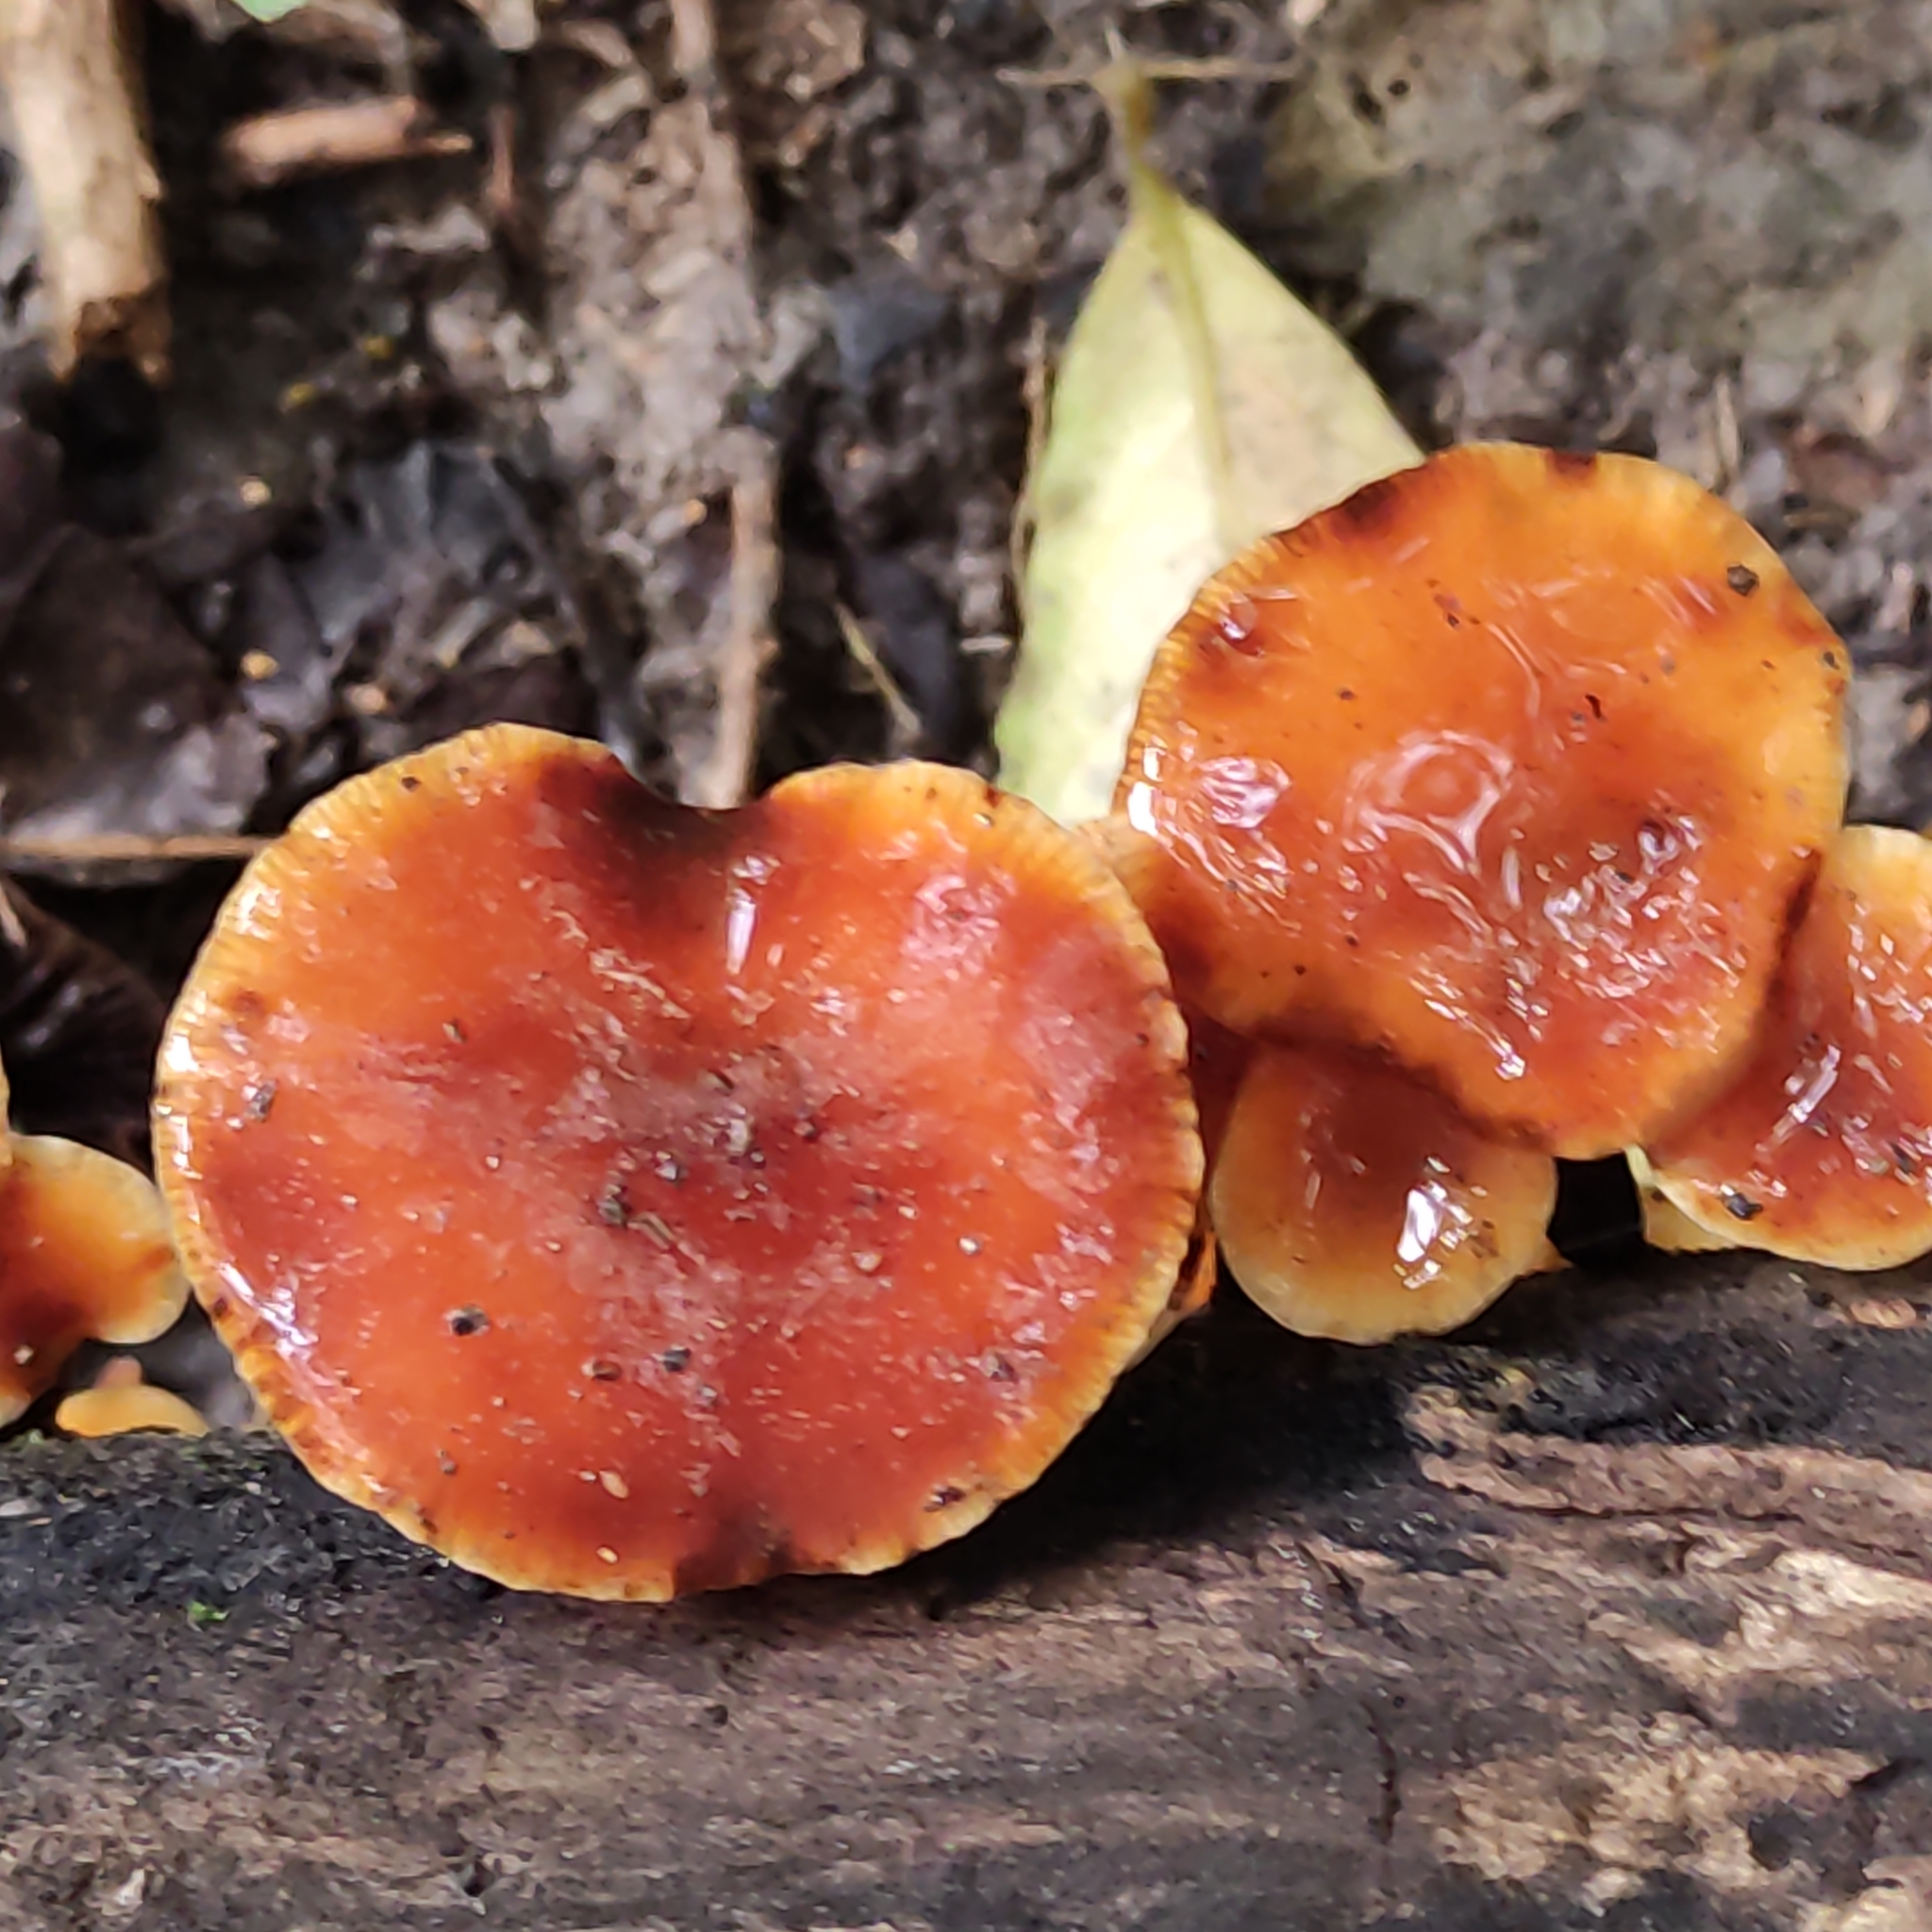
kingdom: Fungi
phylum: Basidiomycota
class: Agaricomycetes
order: Agaricales
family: Physalacriaceae
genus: Flammulina
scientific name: Flammulina velutipes
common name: Velvet shank
